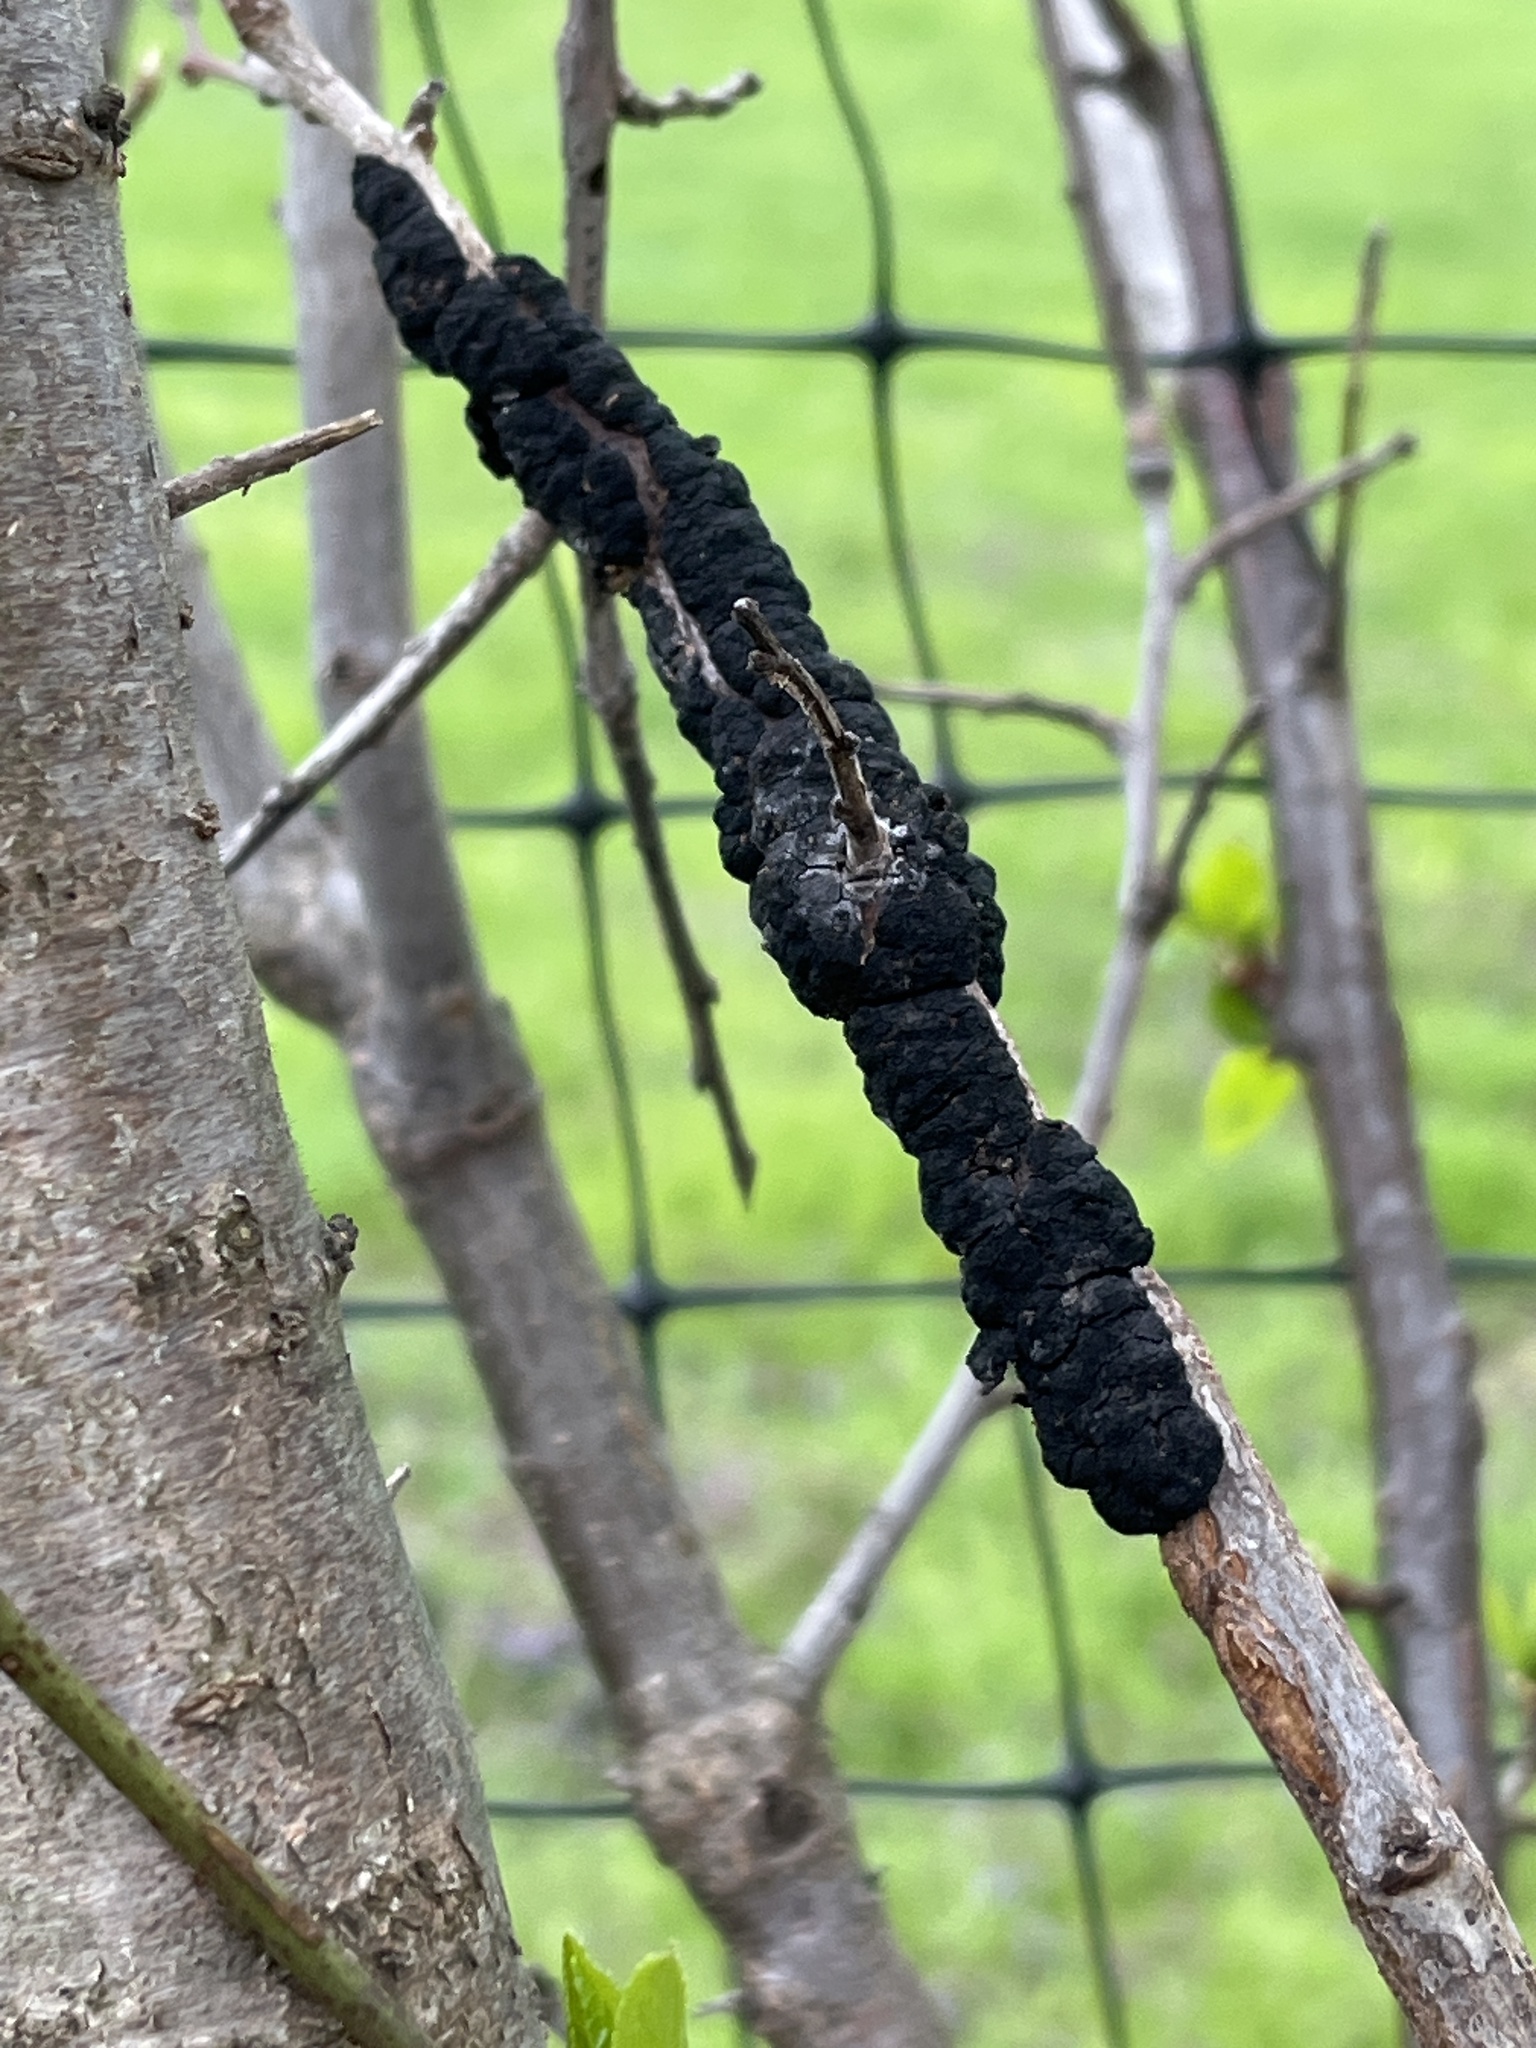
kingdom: Fungi
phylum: Ascomycota
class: Dothideomycetes
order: Venturiales
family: Venturiaceae
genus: Apiosporina
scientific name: Apiosporina morbosa
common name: Black knot
